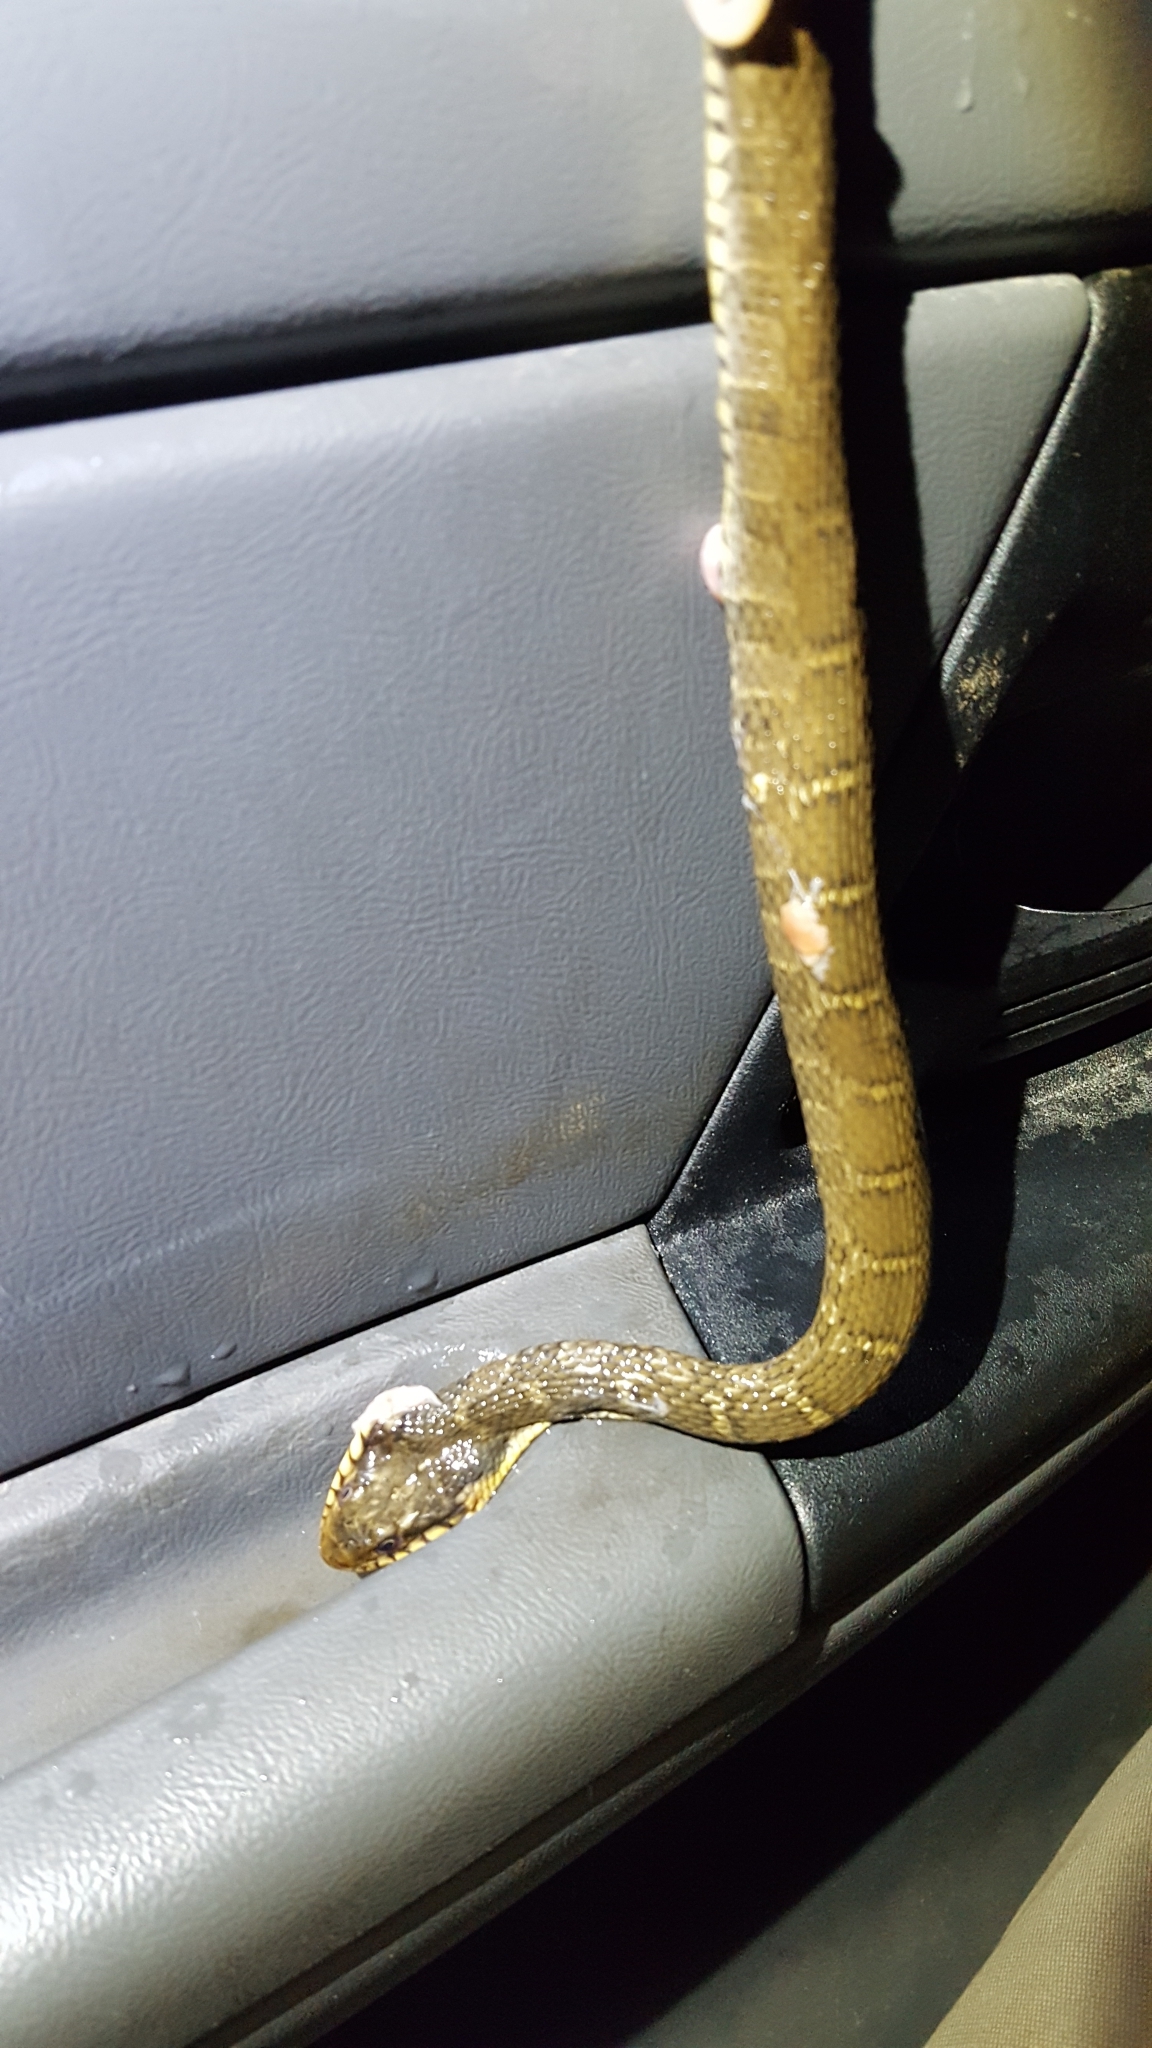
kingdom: Animalia
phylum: Chordata
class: Squamata
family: Colubridae
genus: Nerodia
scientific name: Nerodia erythrogaster
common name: Plainbelly water snake
